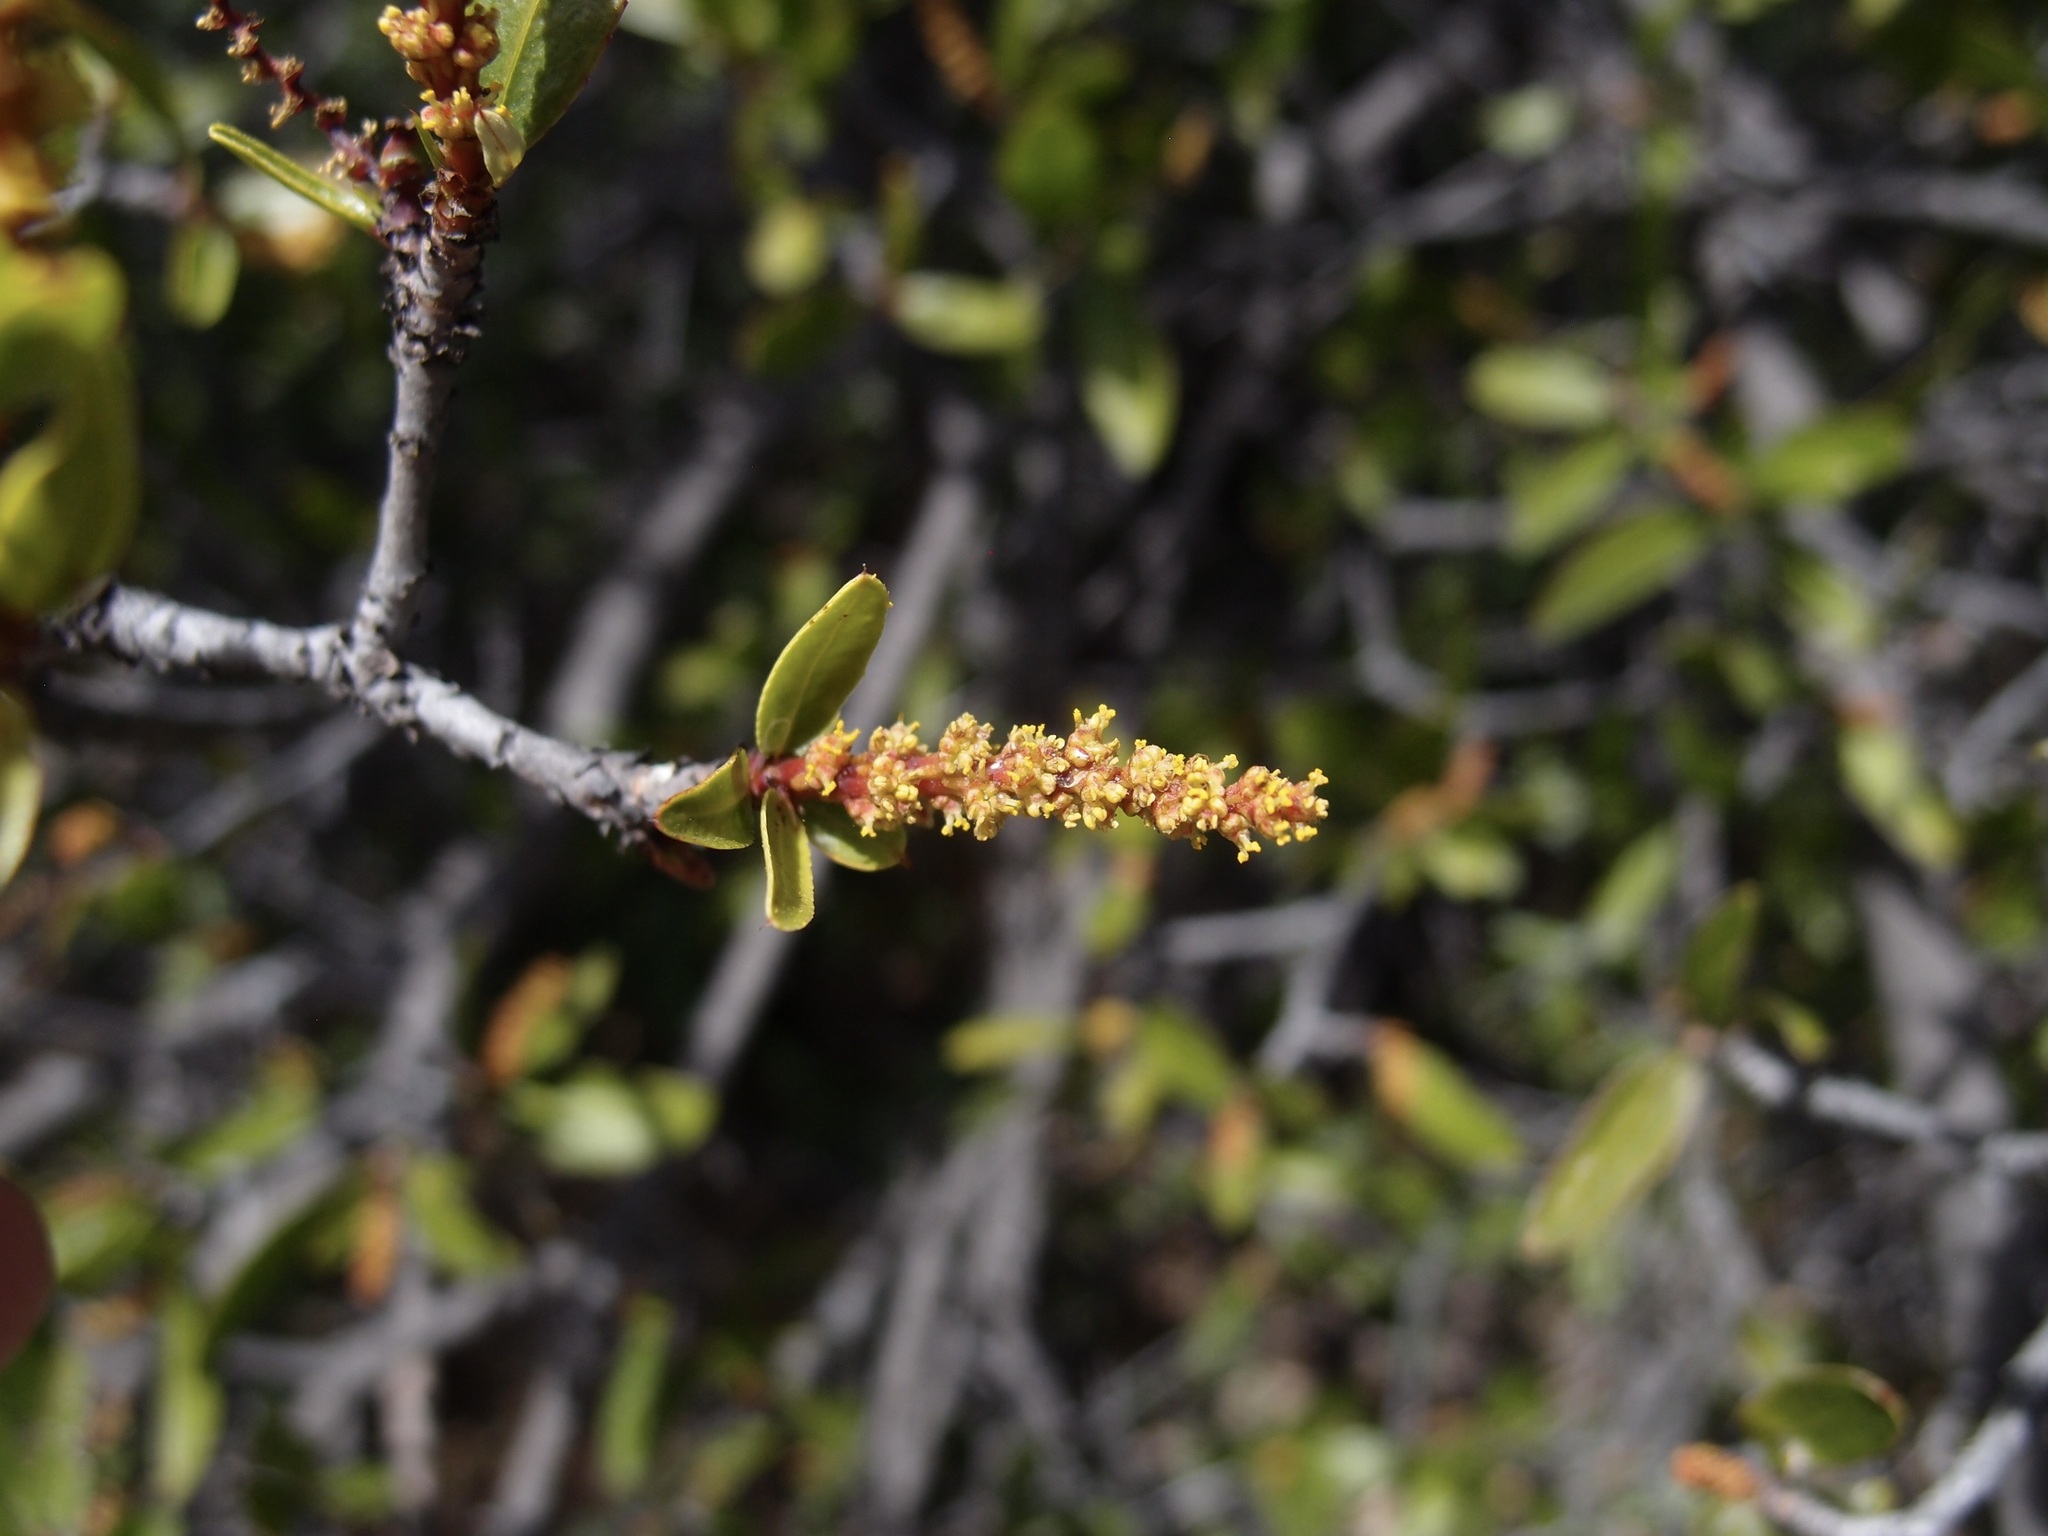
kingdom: Plantae
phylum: Tracheophyta
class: Magnoliopsida
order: Malpighiales
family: Euphorbiaceae
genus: Pleradenophora
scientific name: Pleradenophora bilocularis
